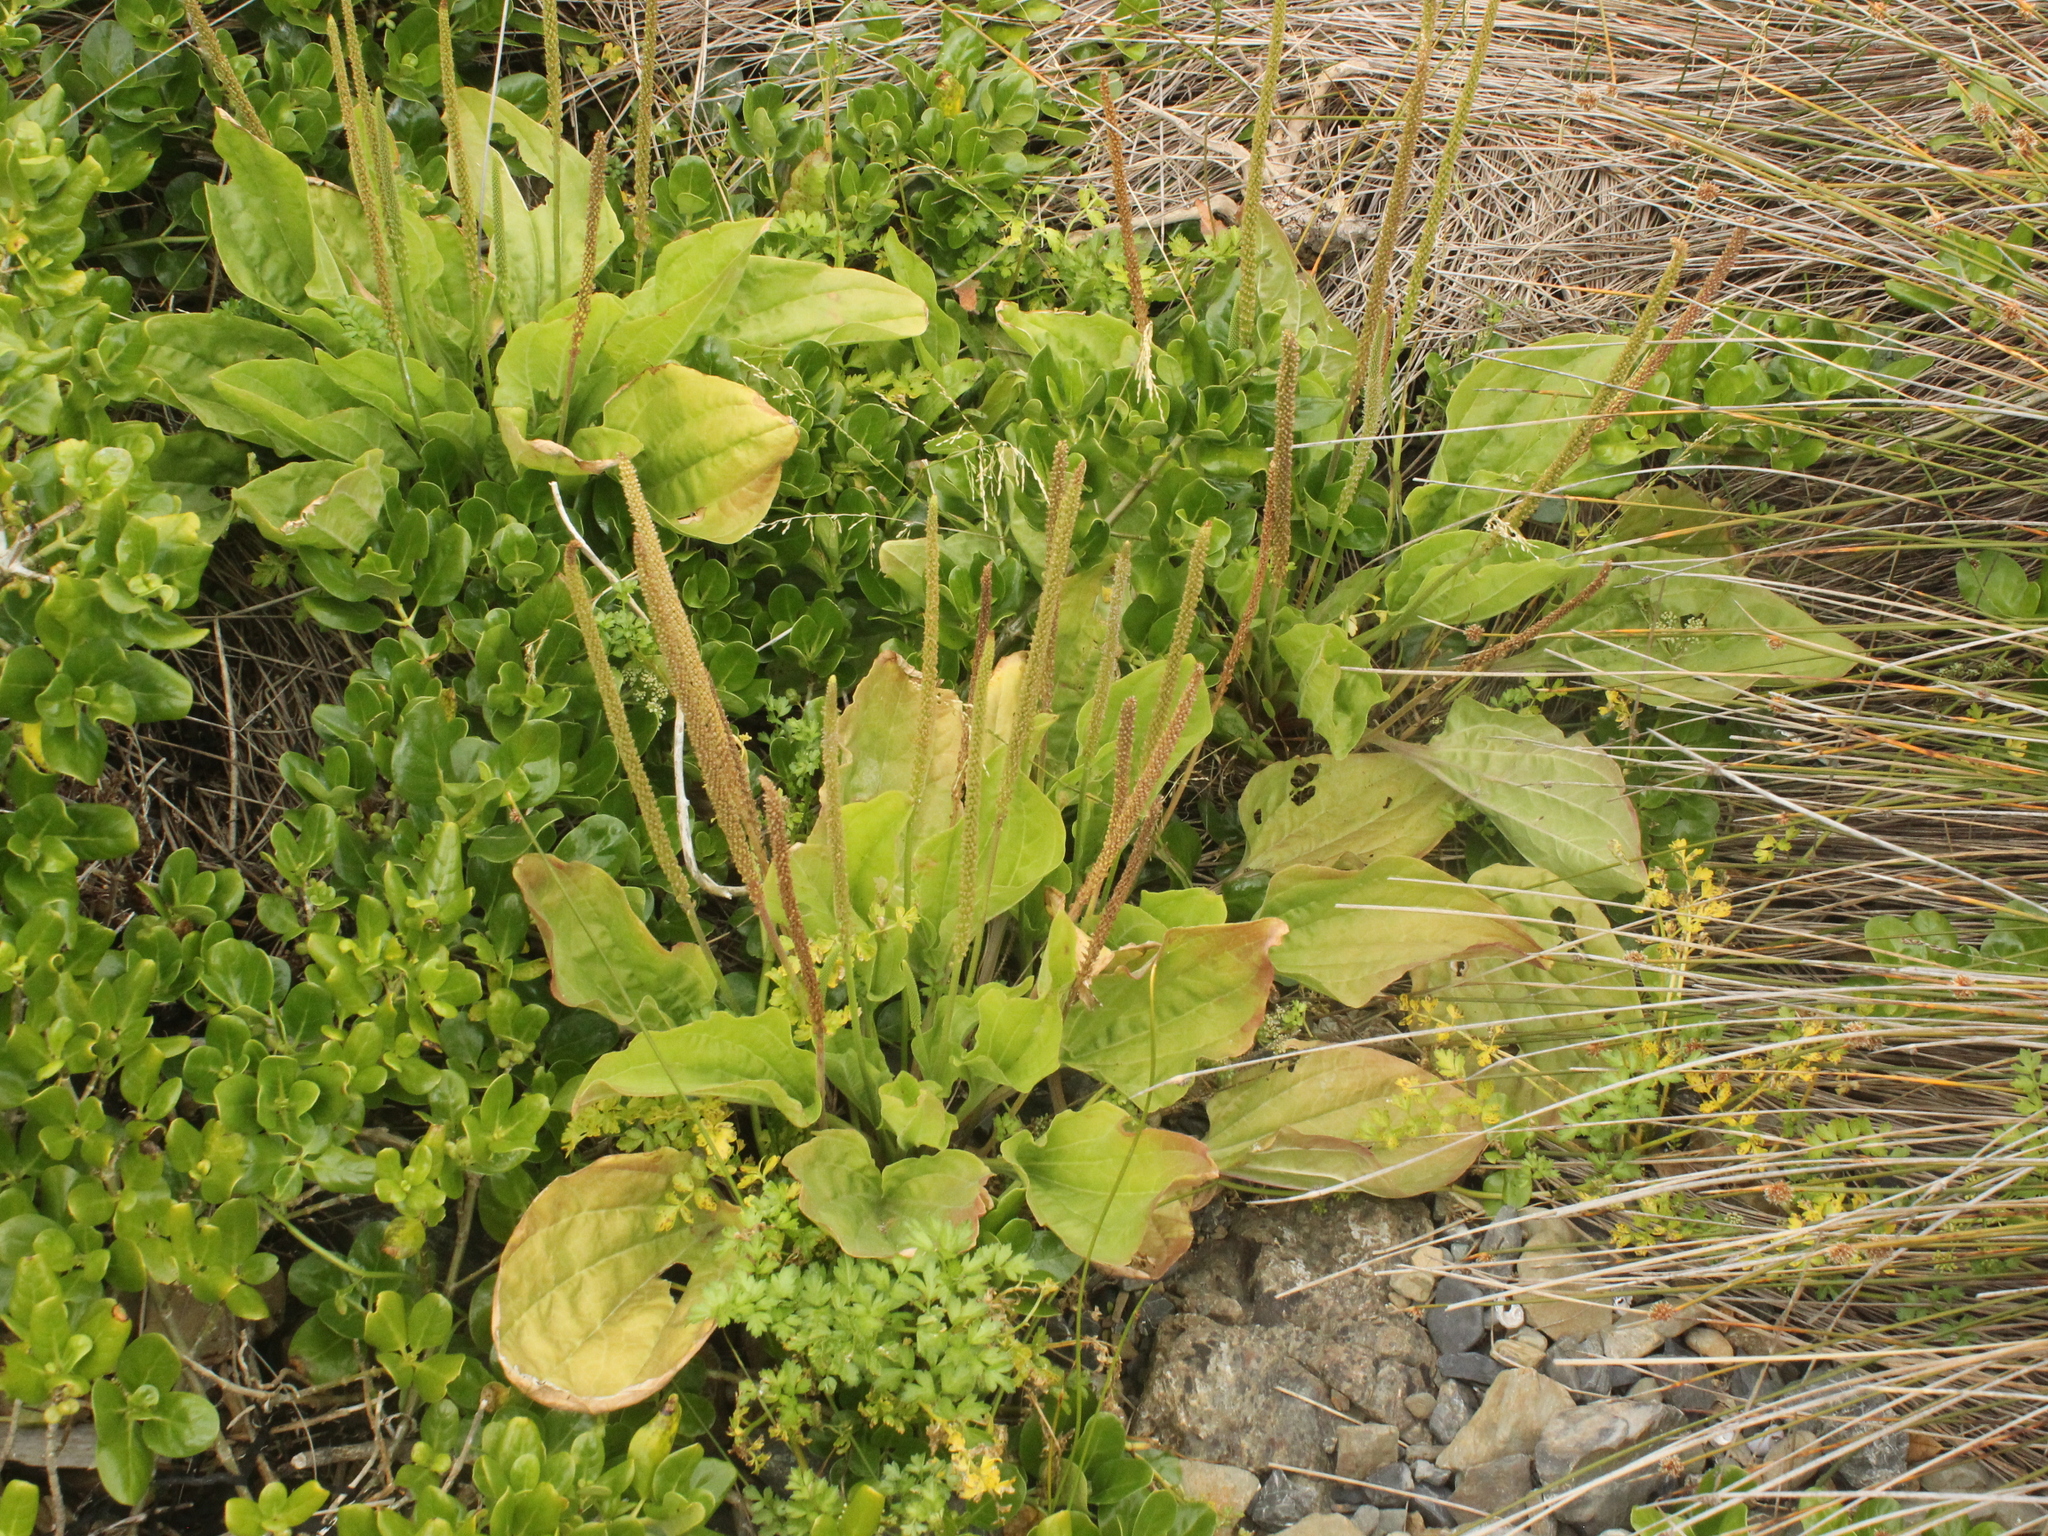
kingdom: Plantae
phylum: Tracheophyta
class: Magnoliopsida
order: Lamiales
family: Plantaginaceae
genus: Plantago
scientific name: Plantago australis
